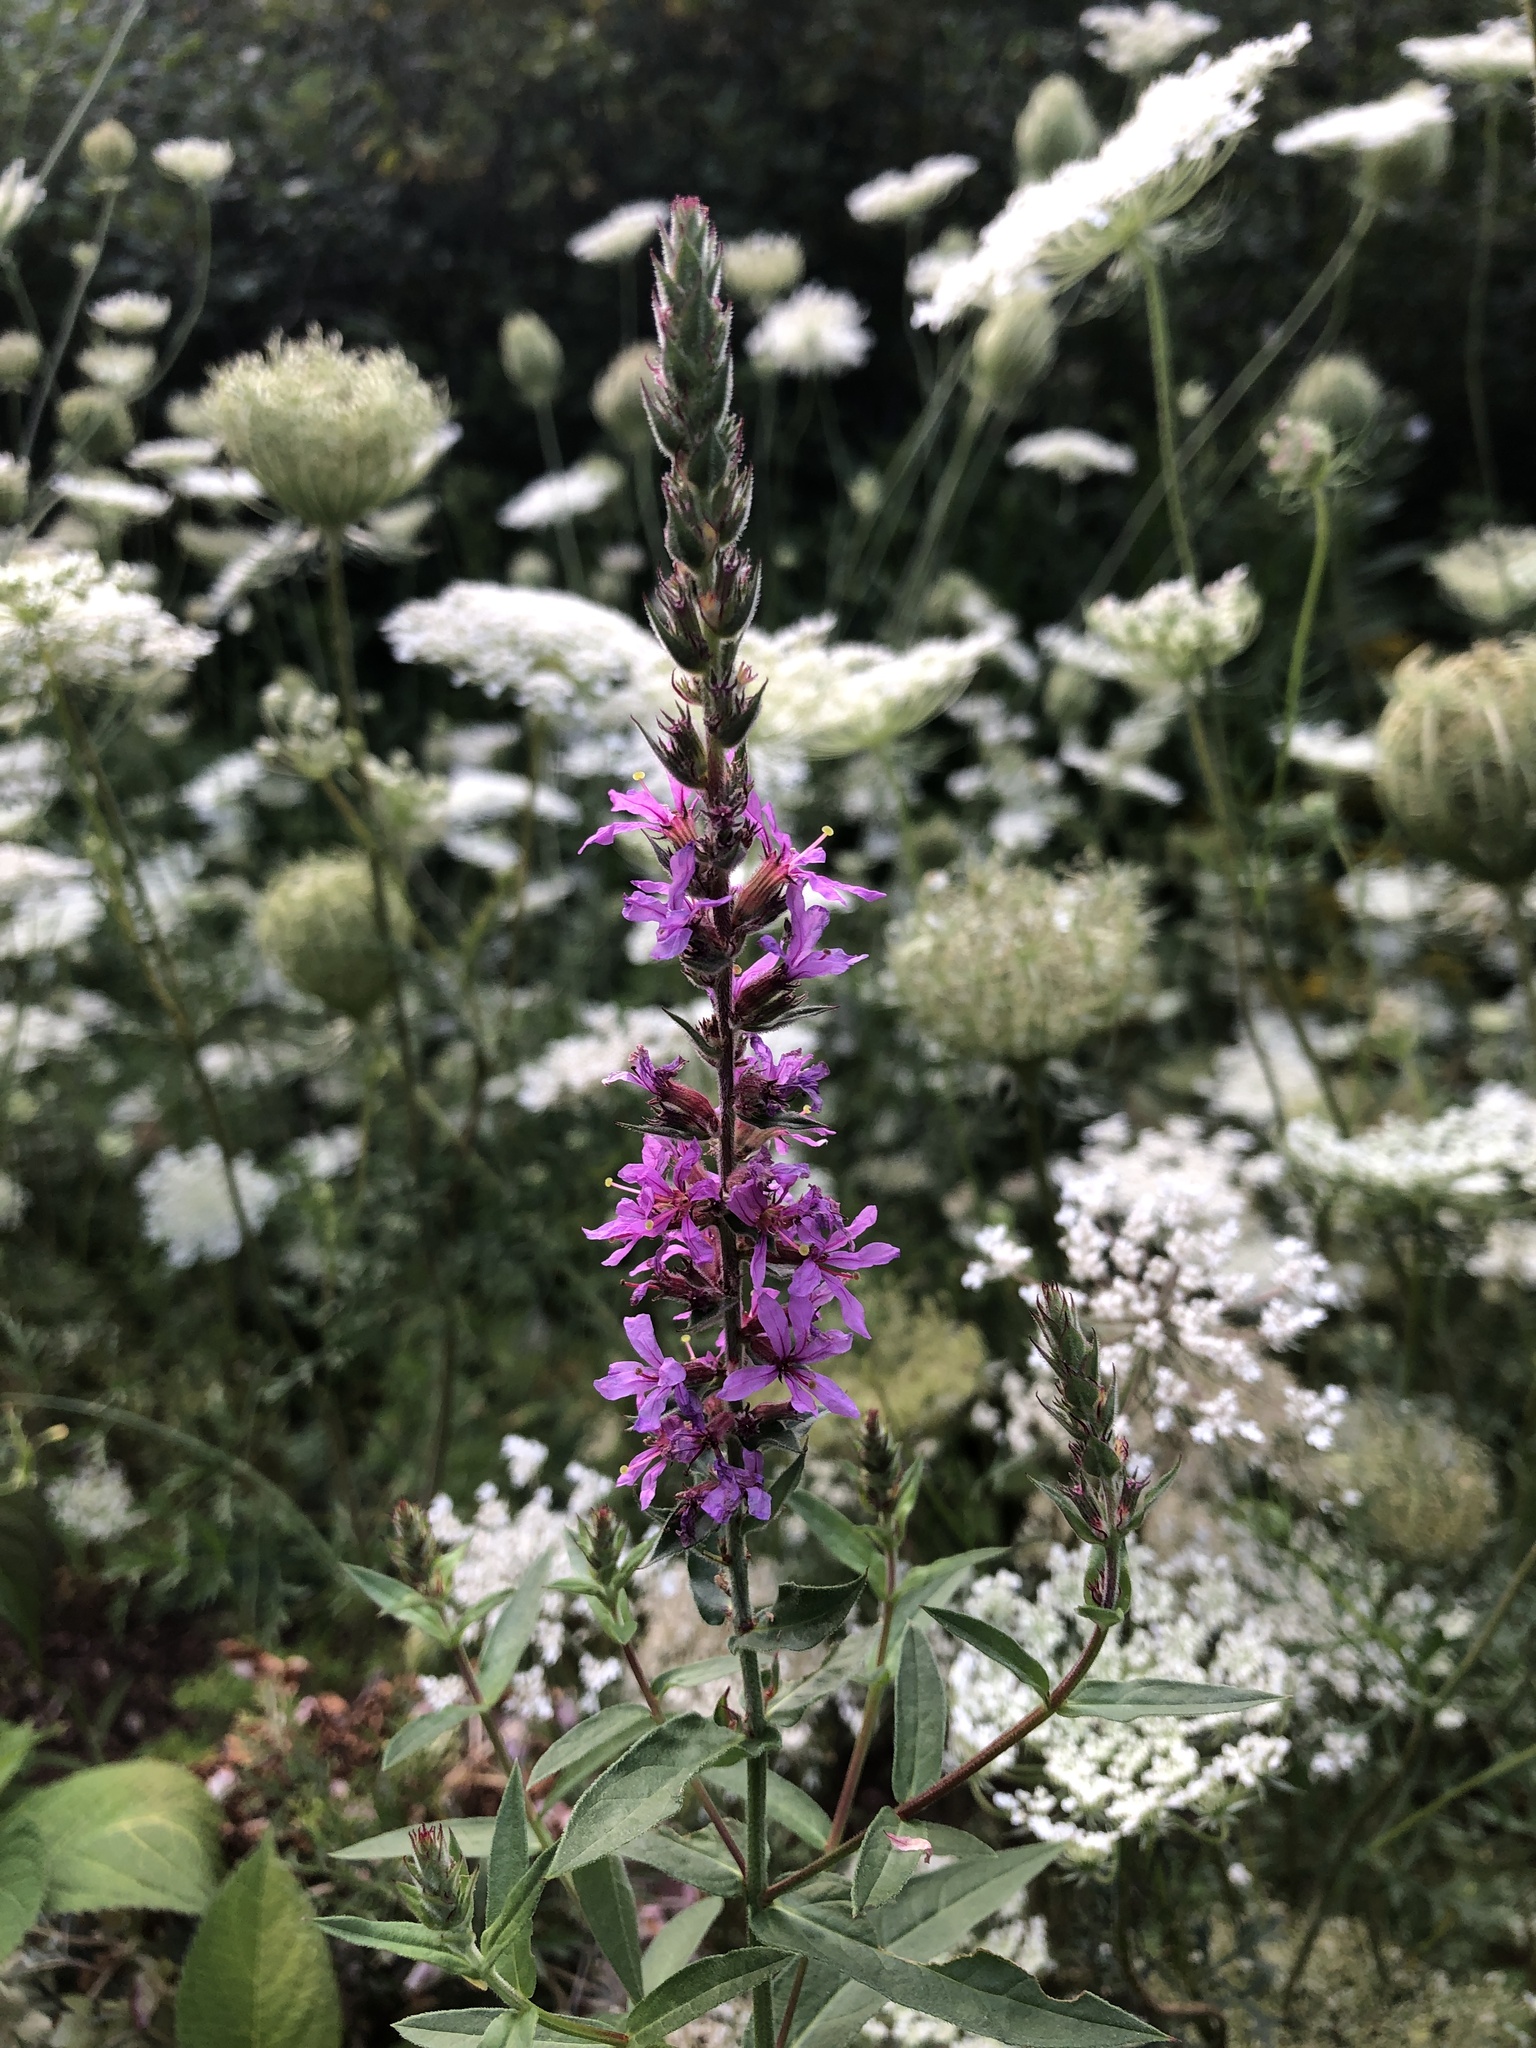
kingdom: Plantae
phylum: Tracheophyta
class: Magnoliopsida
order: Myrtales
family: Lythraceae
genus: Lythrum
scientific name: Lythrum salicaria
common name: Purple loosestrife
